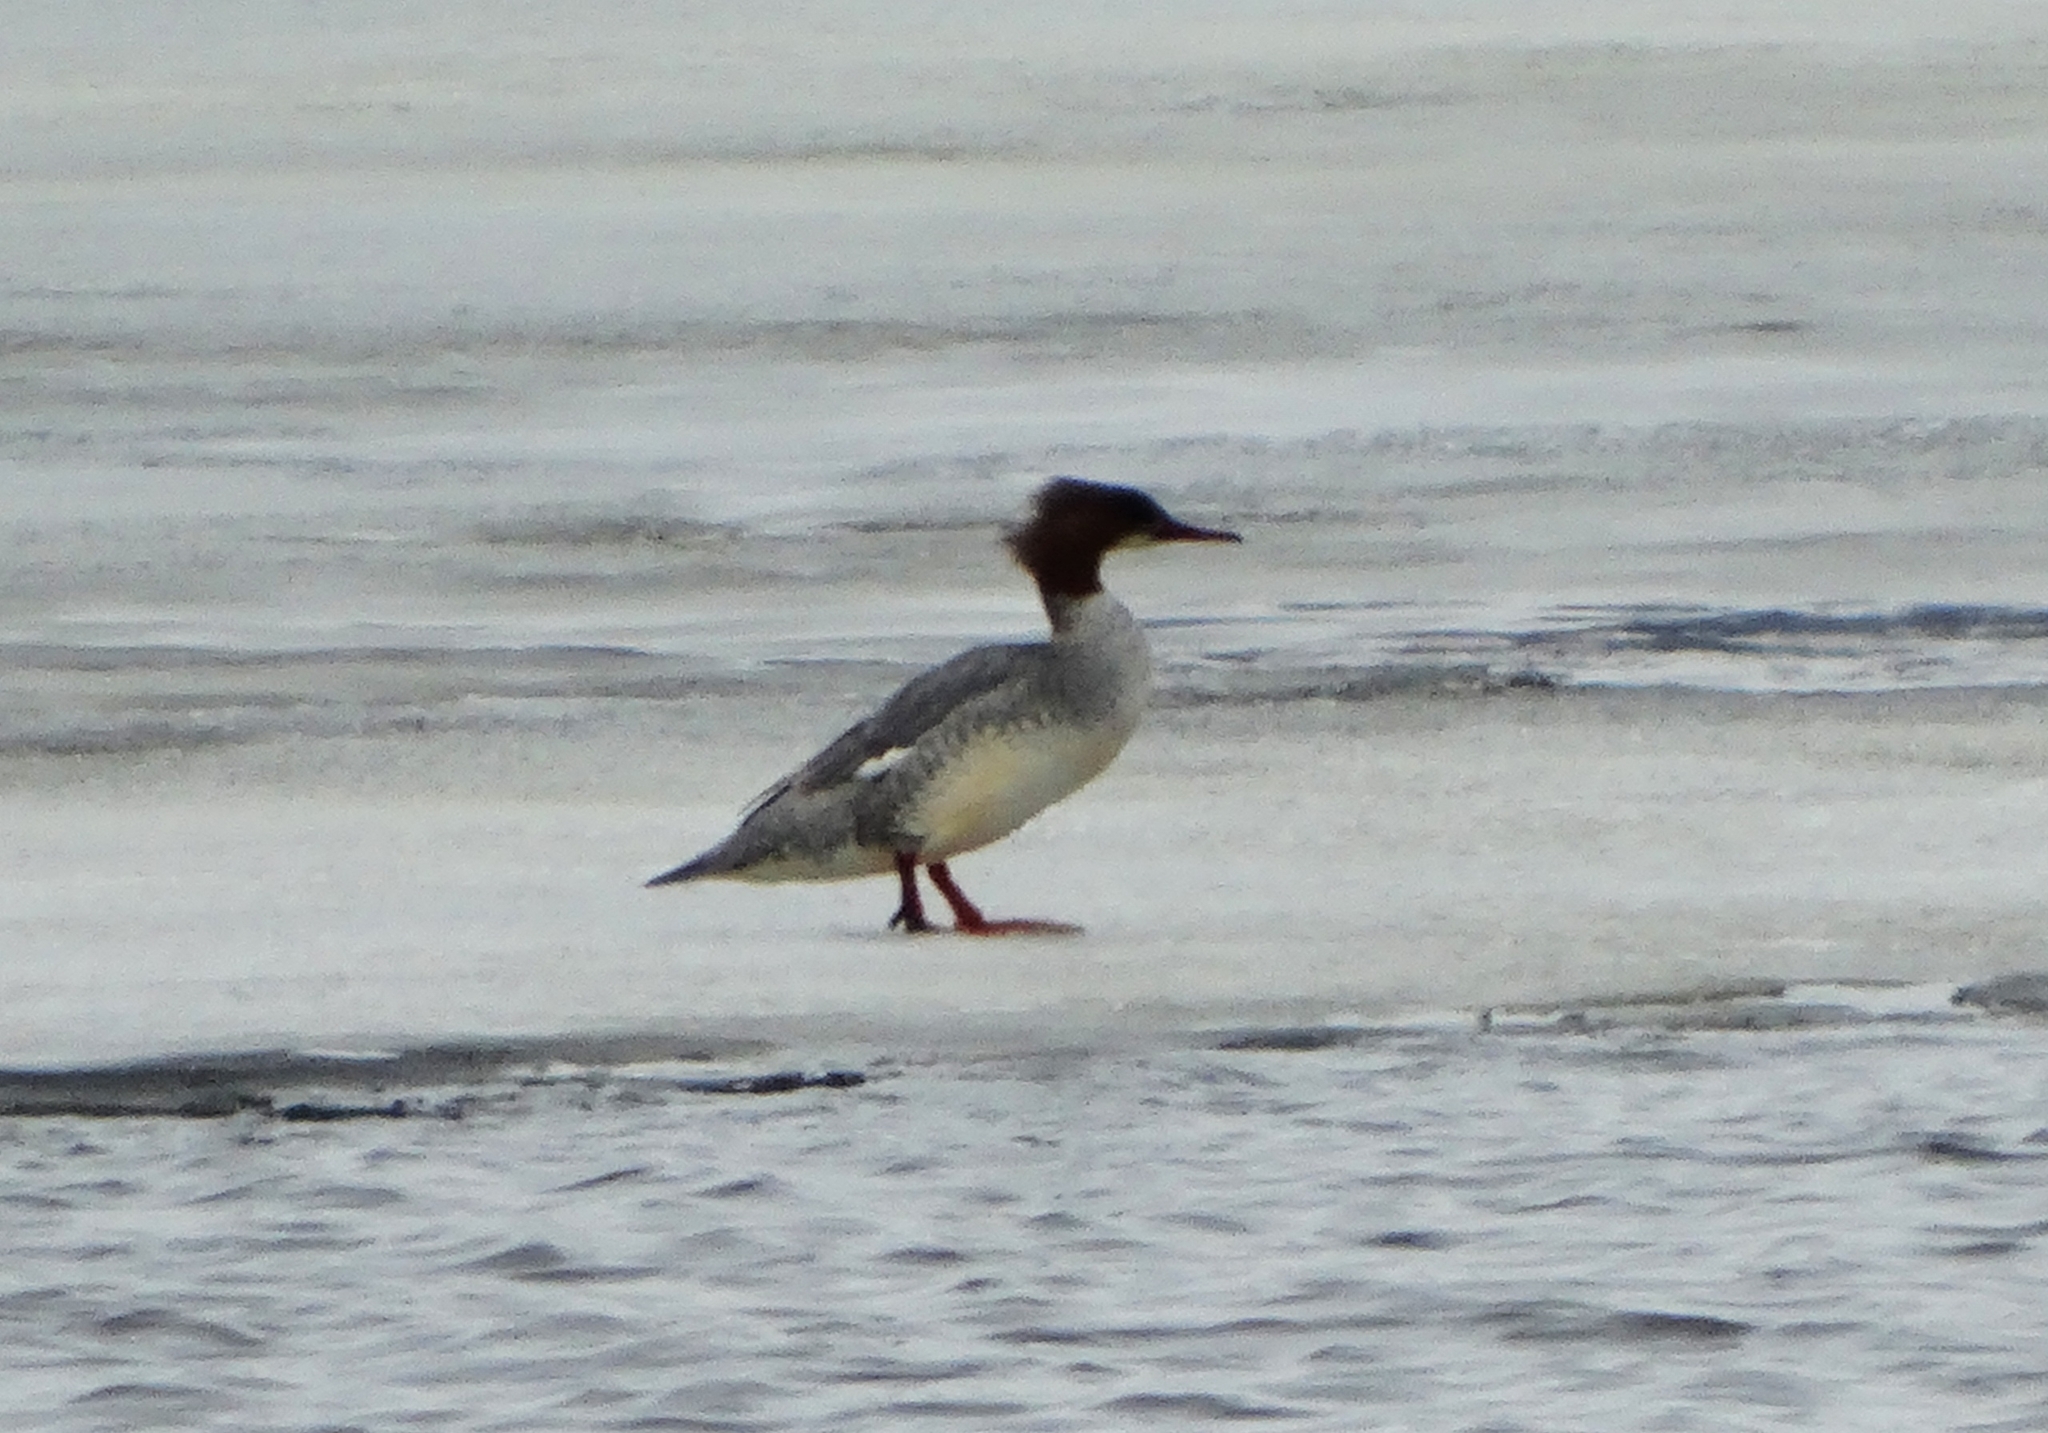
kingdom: Animalia
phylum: Chordata
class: Aves
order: Anseriformes
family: Anatidae
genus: Mergus
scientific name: Mergus merganser
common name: Common merganser
